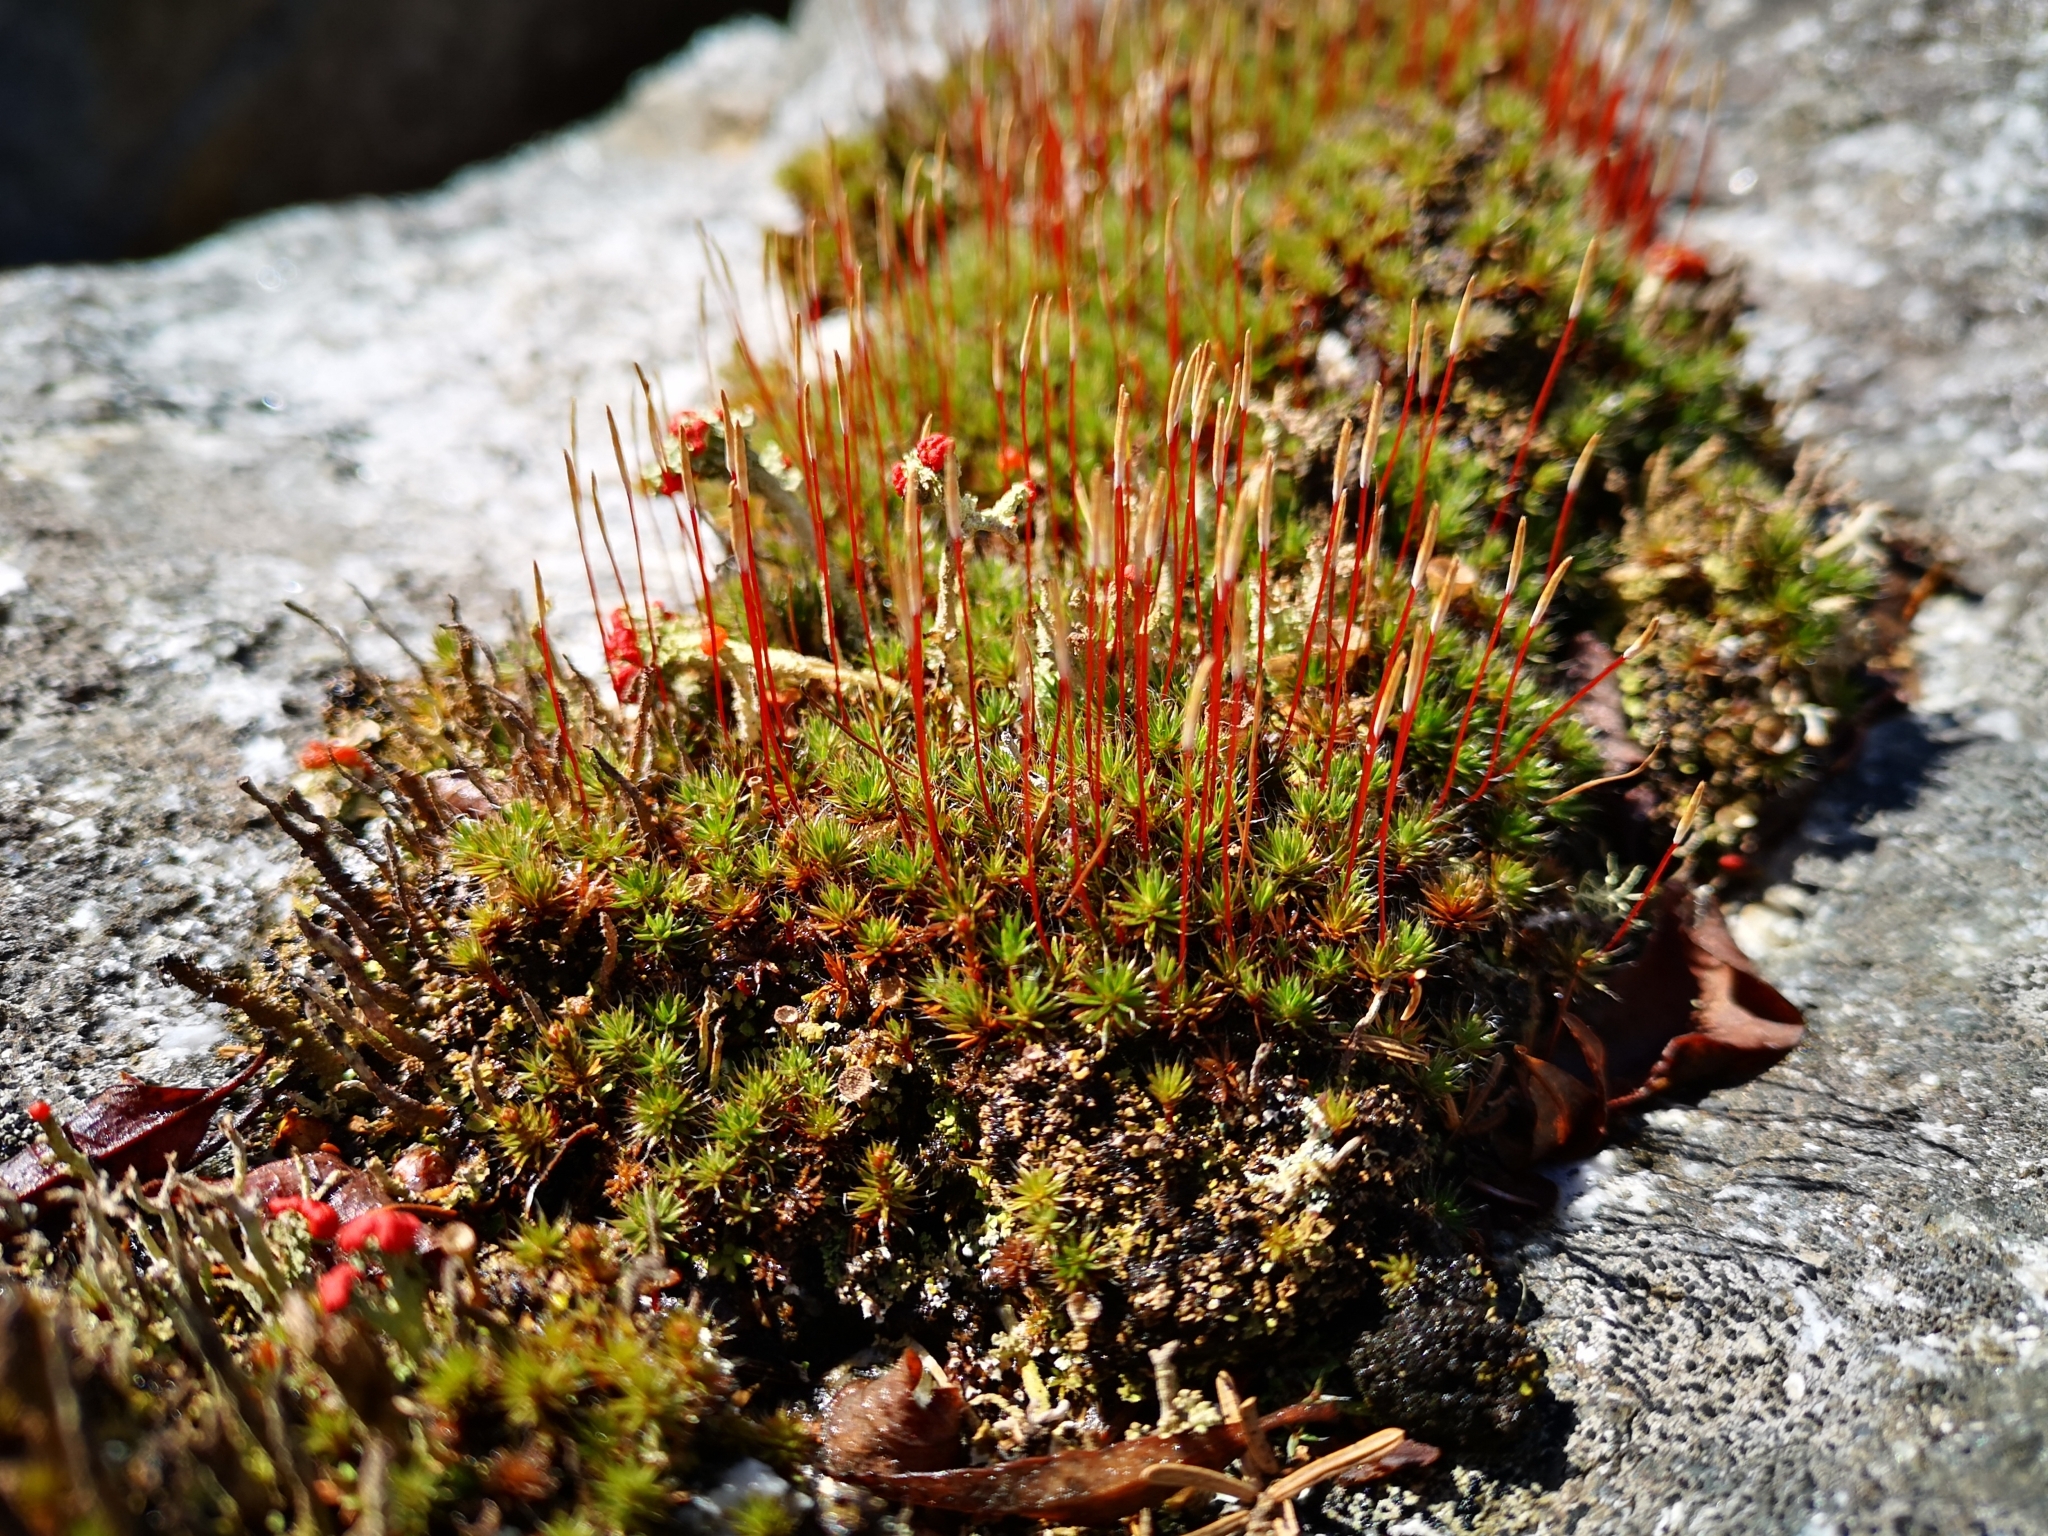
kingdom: Plantae
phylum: Bryophyta
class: Polytrichopsida
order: Polytrichales
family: Polytrichaceae
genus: Polytrichum
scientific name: Polytrichum piliferum
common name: Bristly haircap
